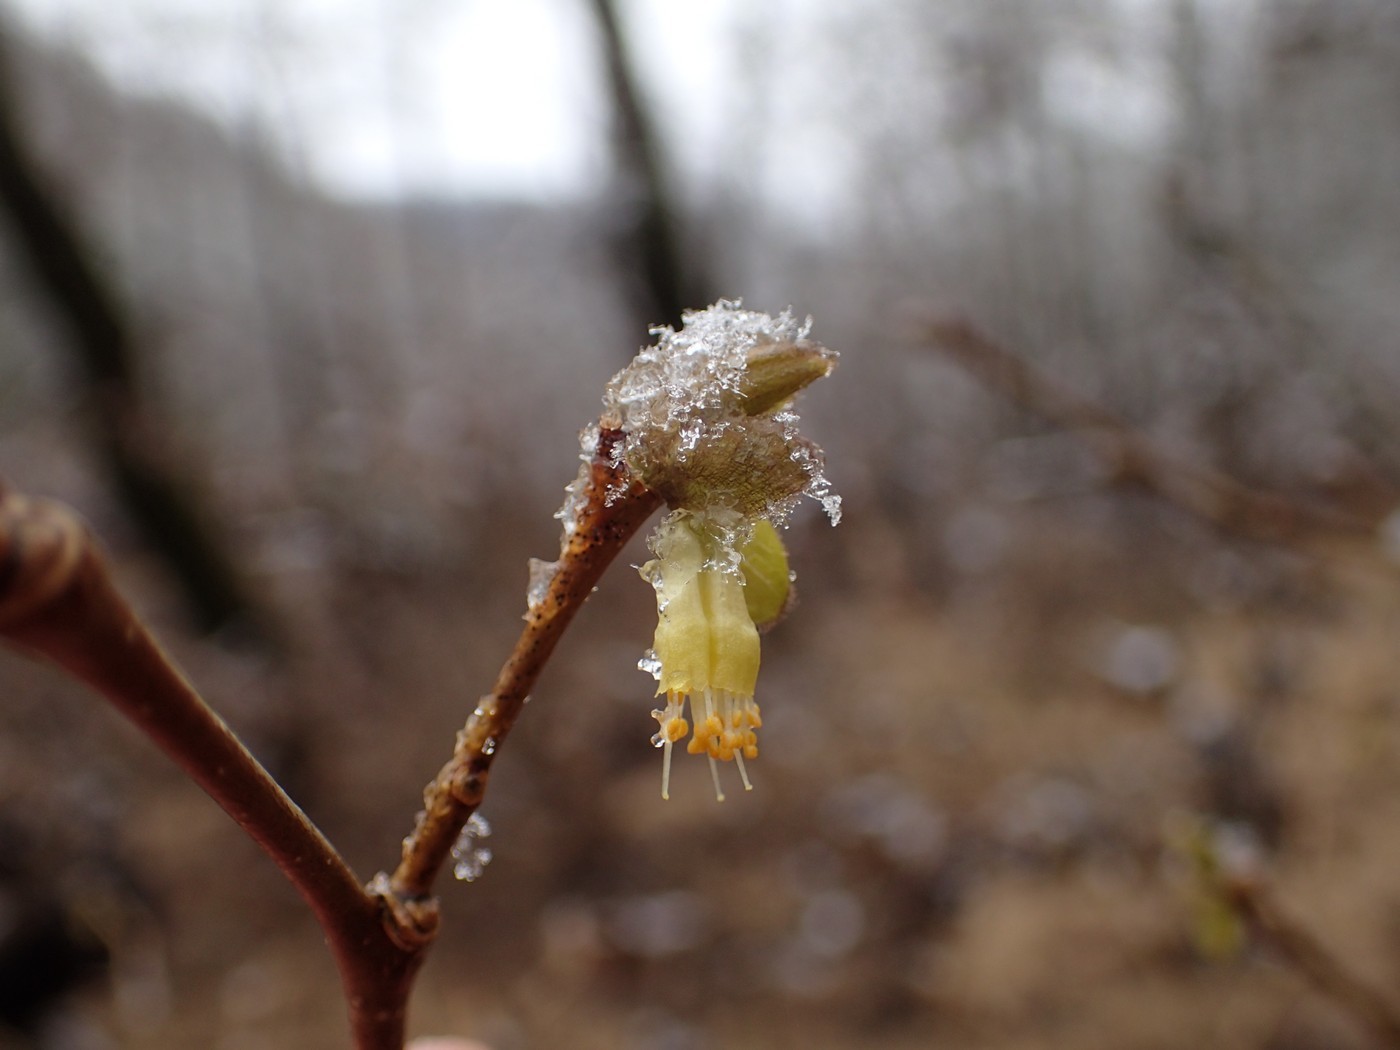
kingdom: Plantae
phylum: Tracheophyta
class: Magnoliopsida
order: Malvales
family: Thymelaeaceae
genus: Dirca
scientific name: Dirca palustris
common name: Leatherwood
